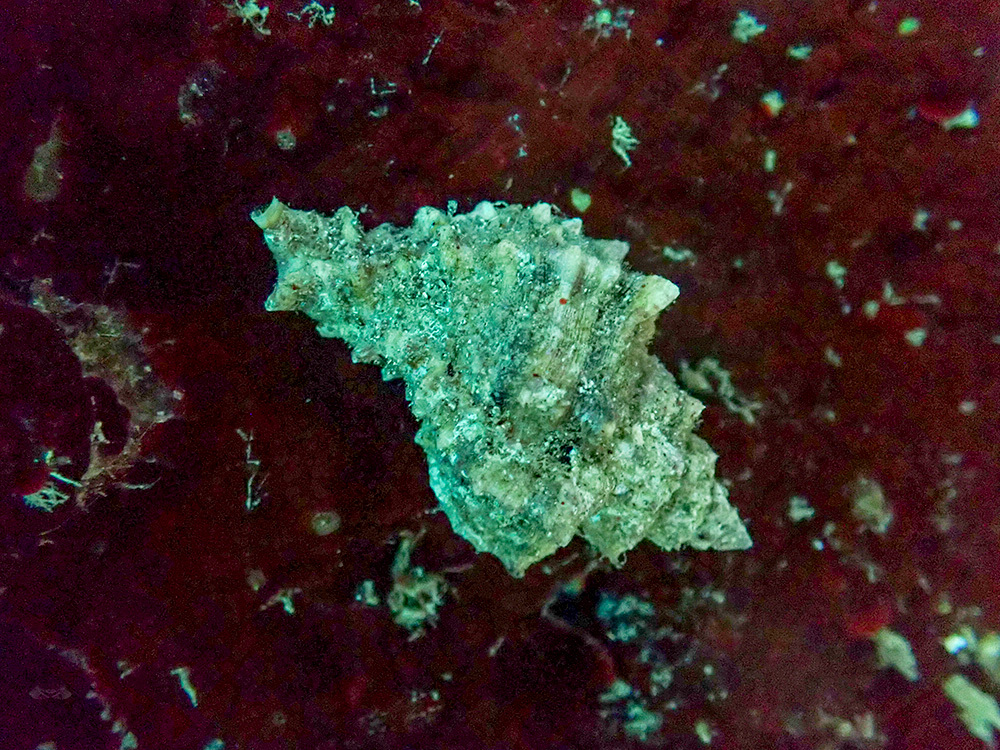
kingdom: Animalia
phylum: Mollusca
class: Gastropoda
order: Neogastropoda
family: Muricidae
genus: Hexaplex
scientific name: Hexaplex trunculus
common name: Banded dye-murex
